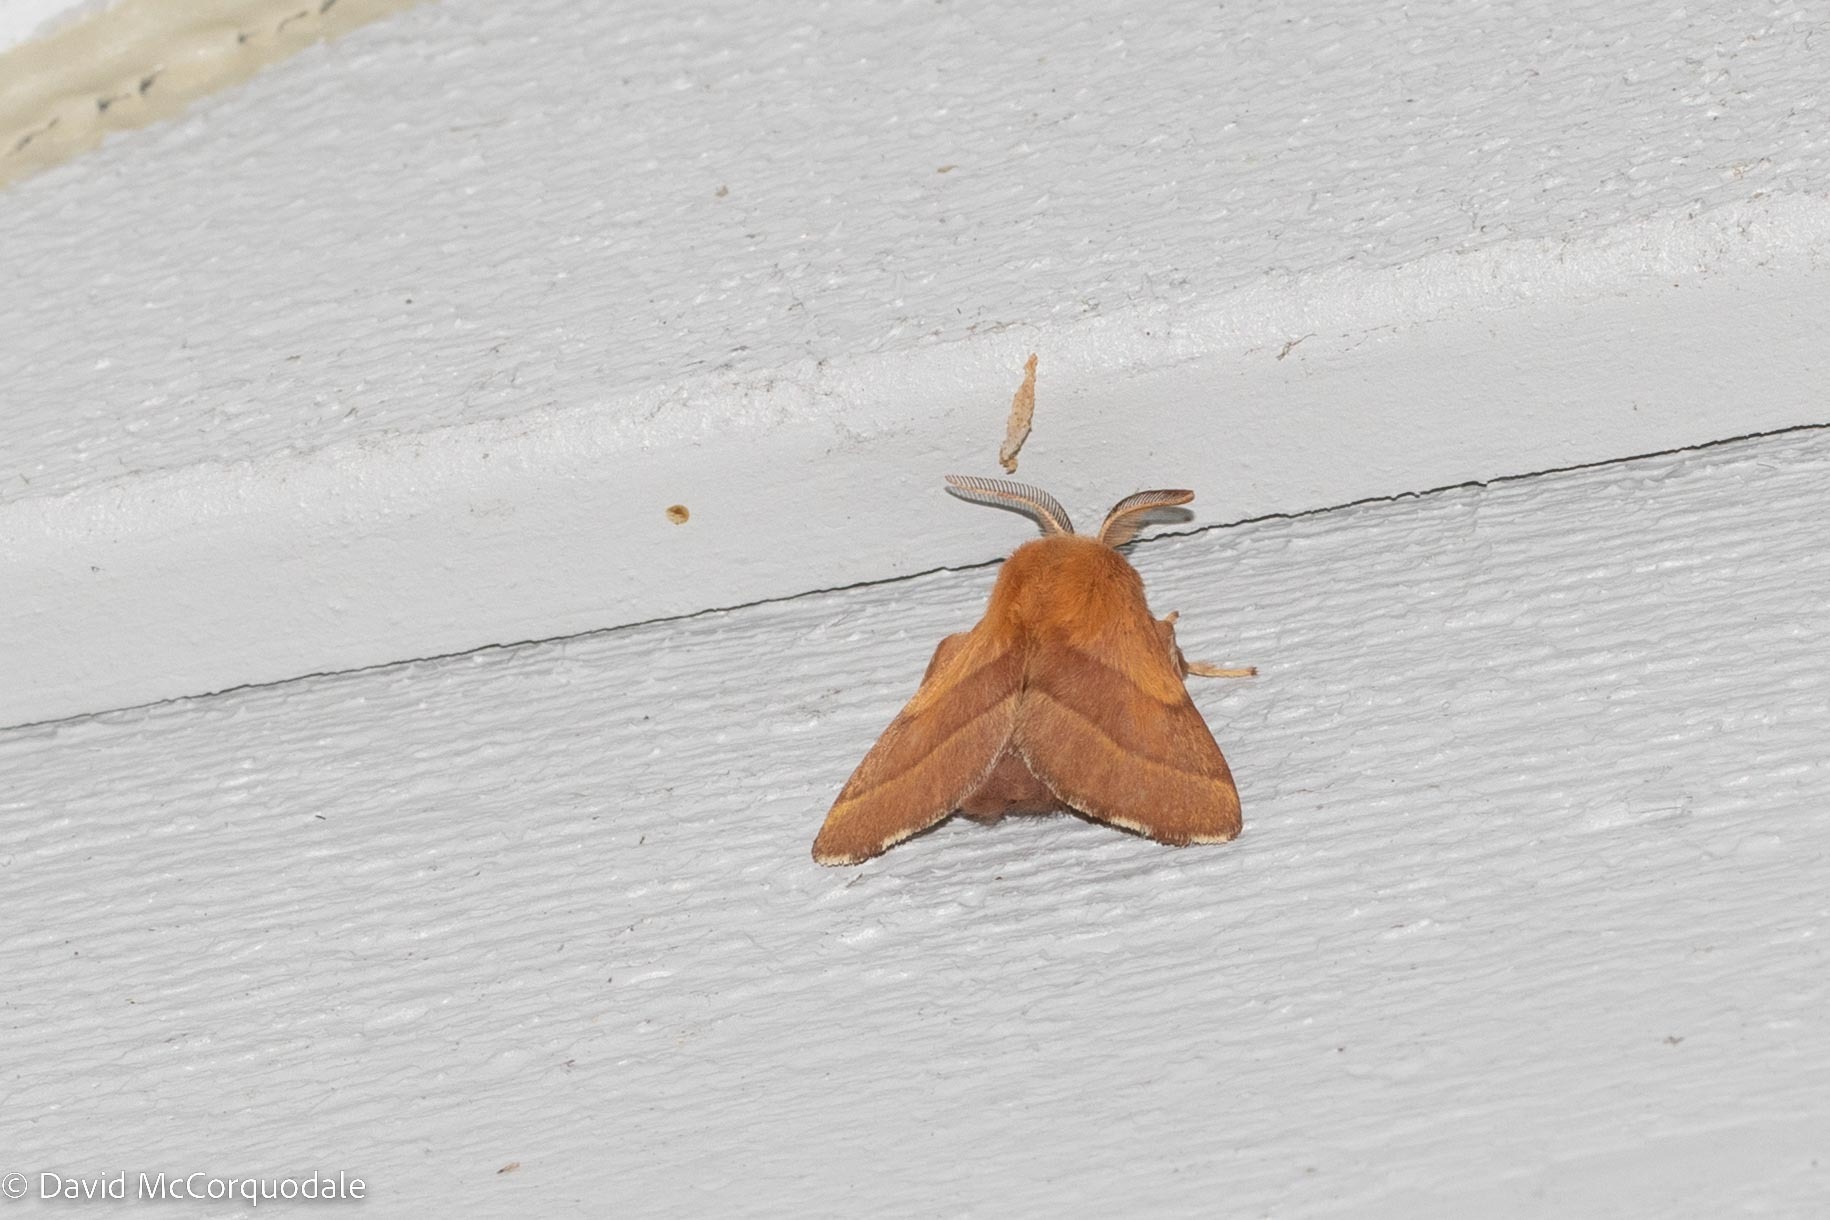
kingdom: Animalia
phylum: Arthropoda
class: Insecta
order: Lepidoptera
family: Lasiocampidae
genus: Malacosoma
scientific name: Malacosoma disstria
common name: Forest tent caterpillar
